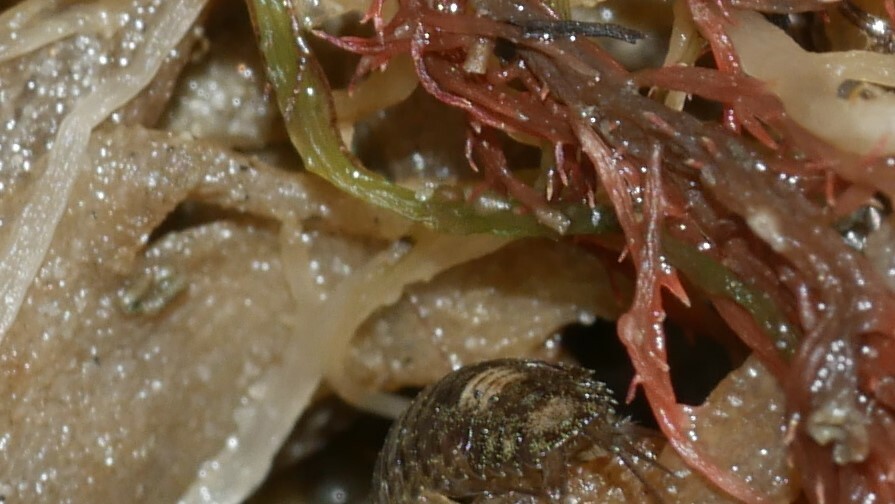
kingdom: Animalia
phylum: Arthropoda
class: Malacostraca
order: Isopoda
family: Ligiidae
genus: Ligia
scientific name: Ligia exotica
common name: Wharf roach
